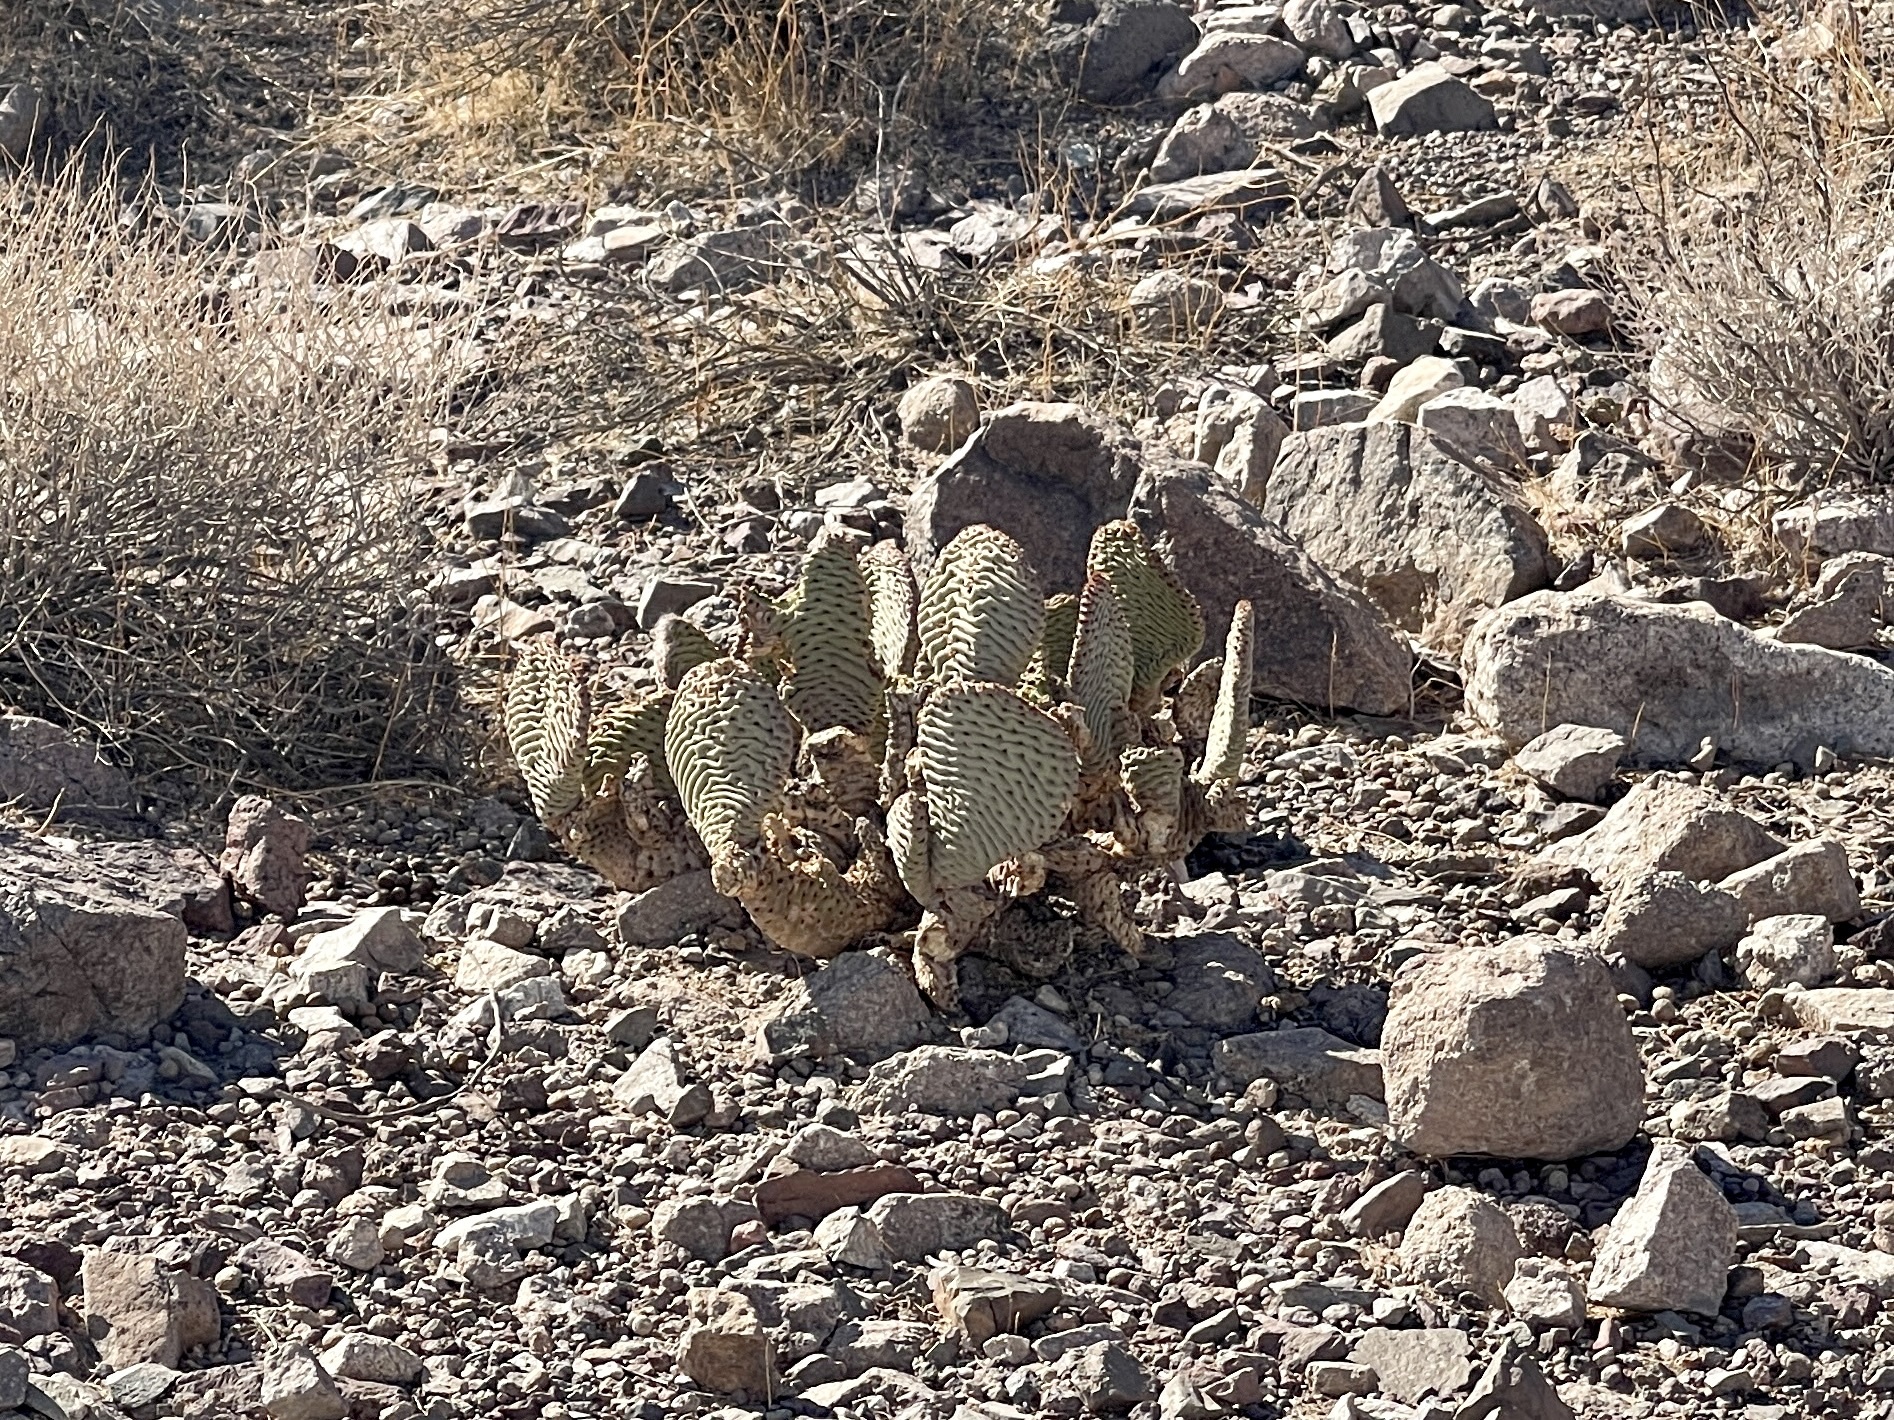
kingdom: Plantae
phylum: Tracheophyta
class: Magnoliopsida
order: Caryophyllales
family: Cactaceae
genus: Opuntia
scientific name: Opuntia basilaris
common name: Beavertail prickly-pear
